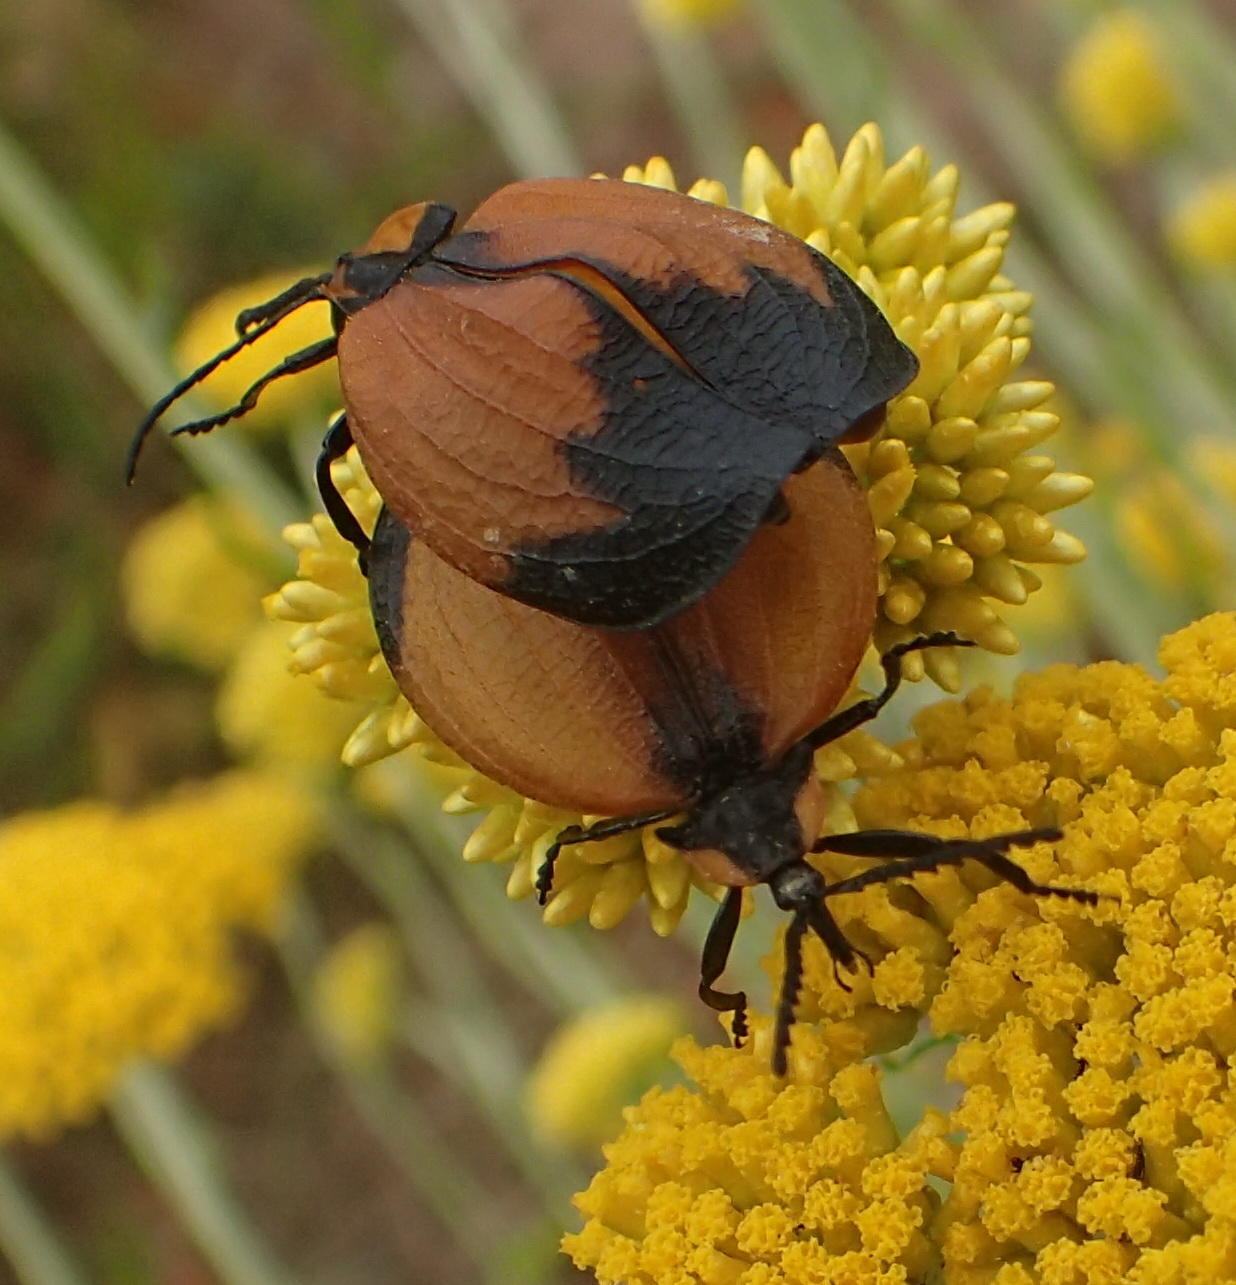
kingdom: Animalia
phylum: Arthropoda
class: Insecta
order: Coleoptera
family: Lycidae
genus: Lycus
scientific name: Lycus
